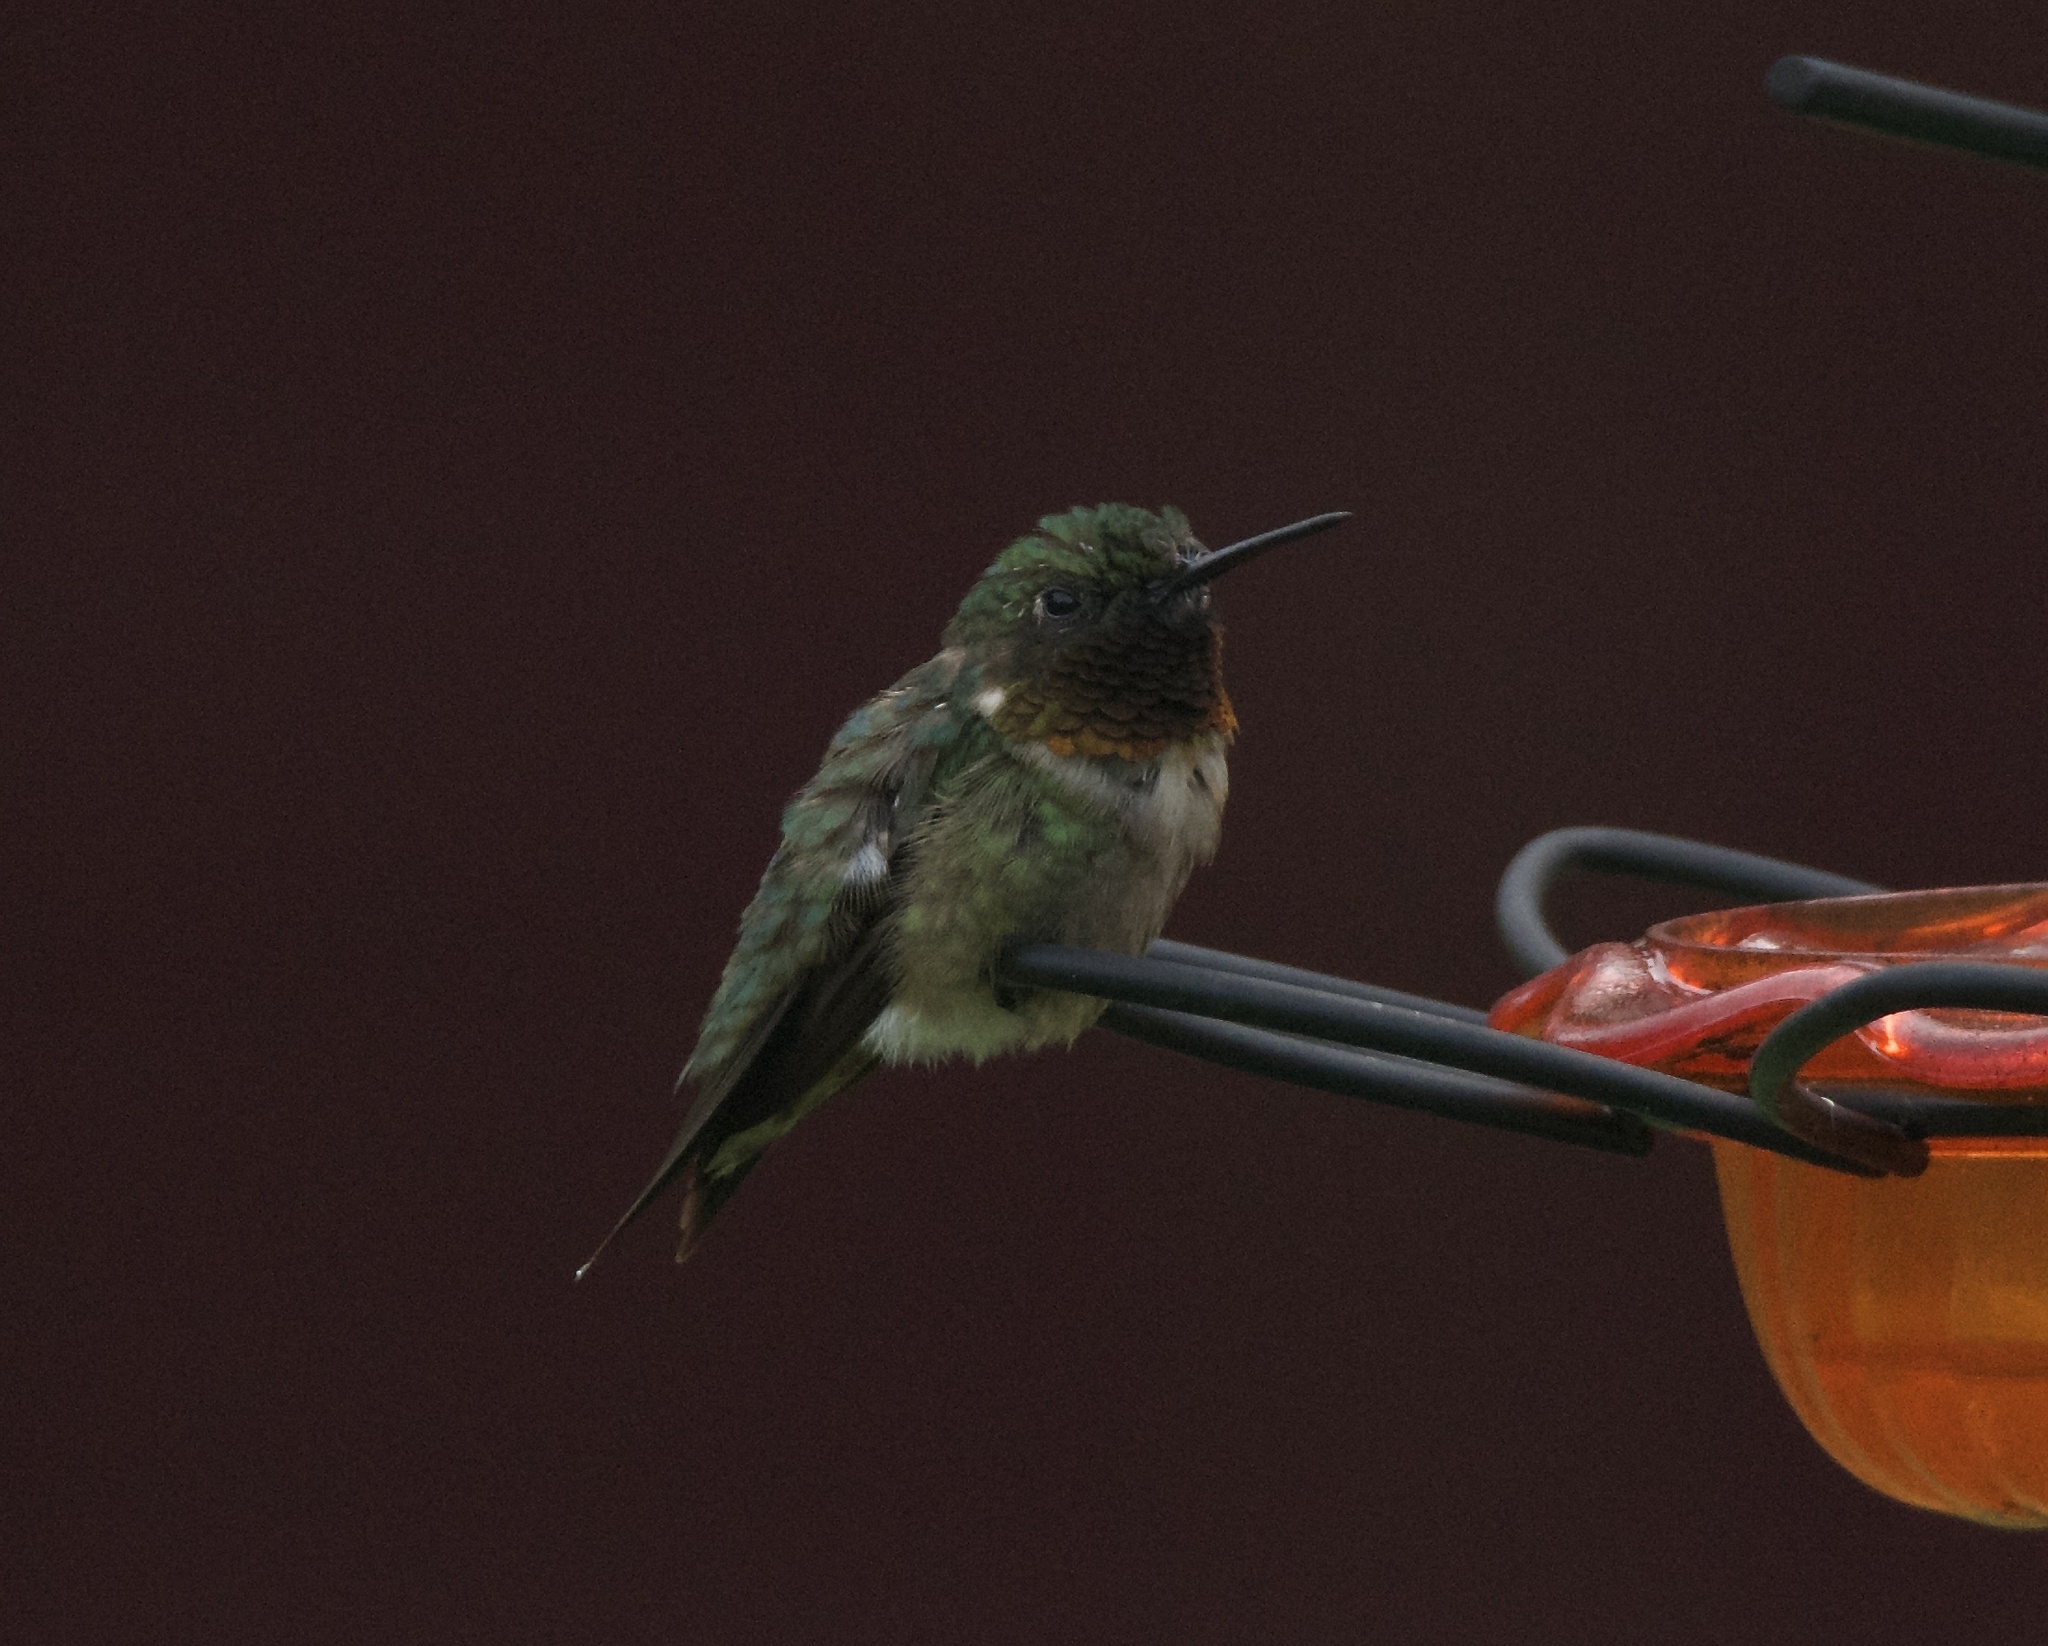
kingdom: Animalia
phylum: Chordata
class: Aves
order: Apodiformes
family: Trochilidae
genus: Archilochus
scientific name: Archilochus colubris
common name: Ruby-throated hummingbird
